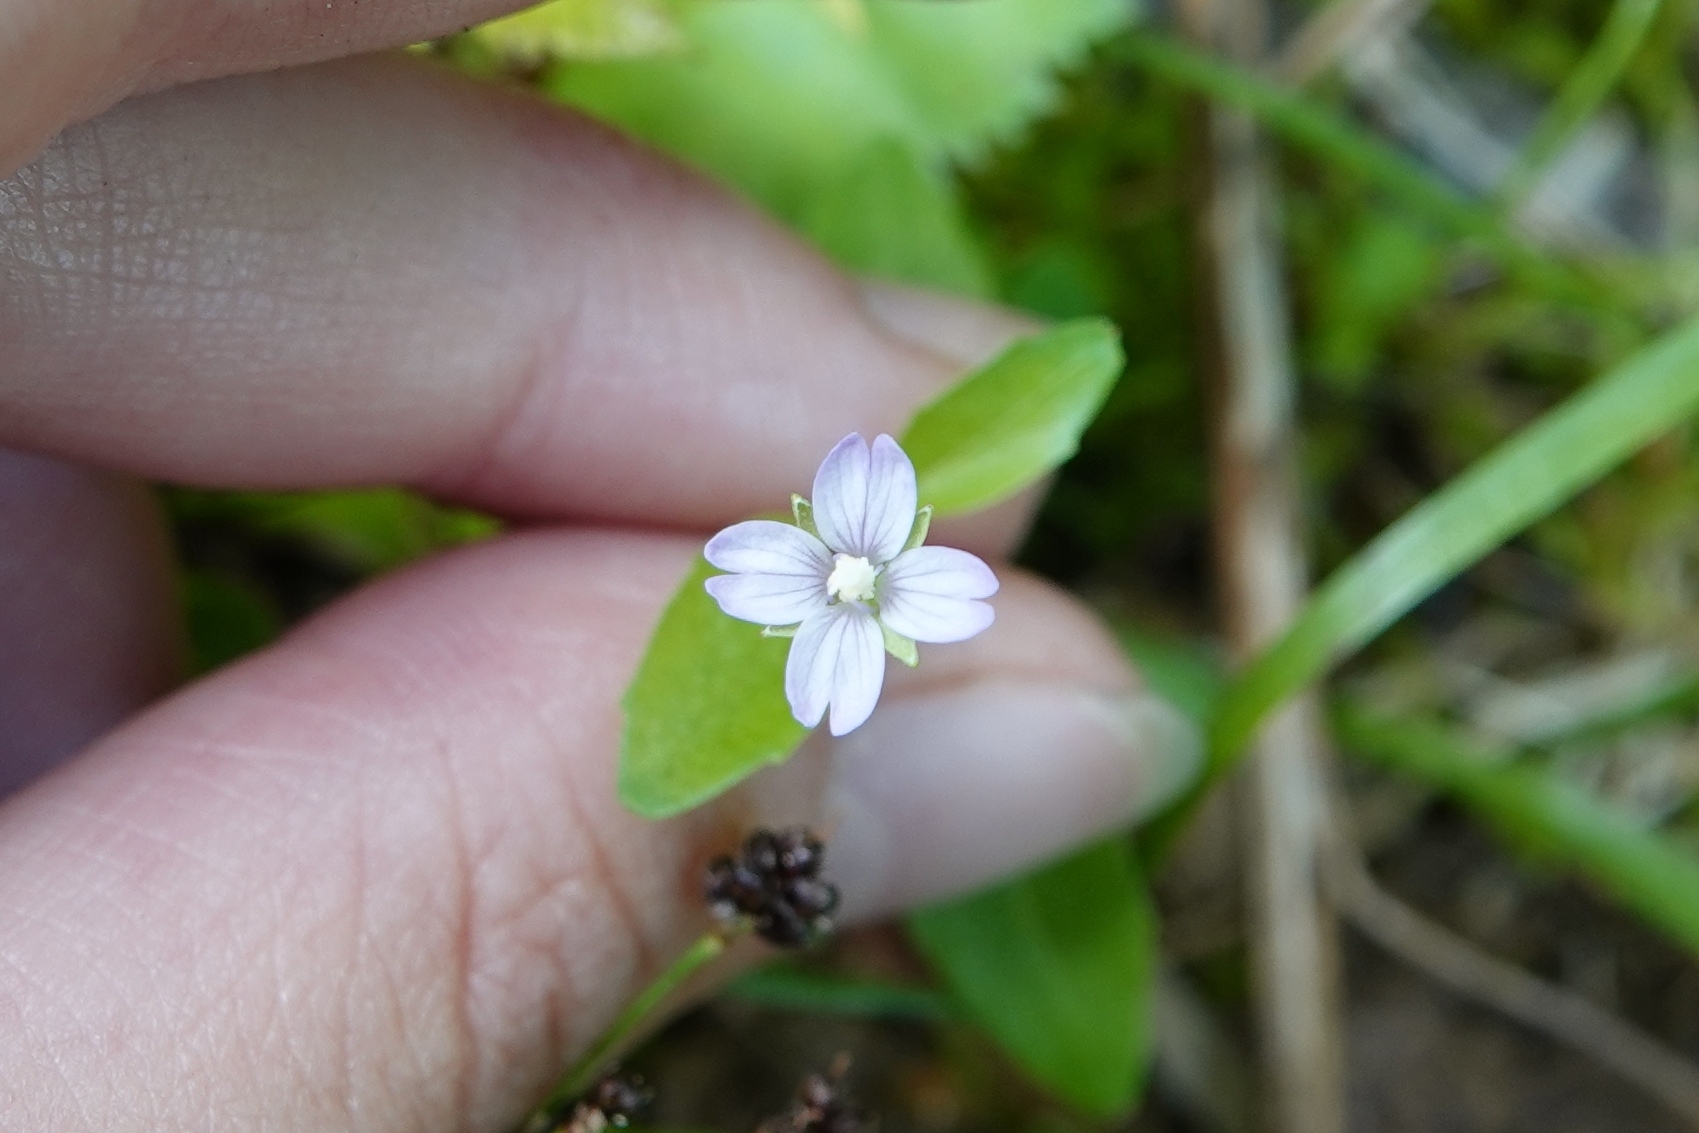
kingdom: Plantae
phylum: Tracheophyta
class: Magnoliopsida
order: Myrtales
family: Onagraceae
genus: Epilobium
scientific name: Epilobium hornemannii
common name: Hornemann's willowherb
